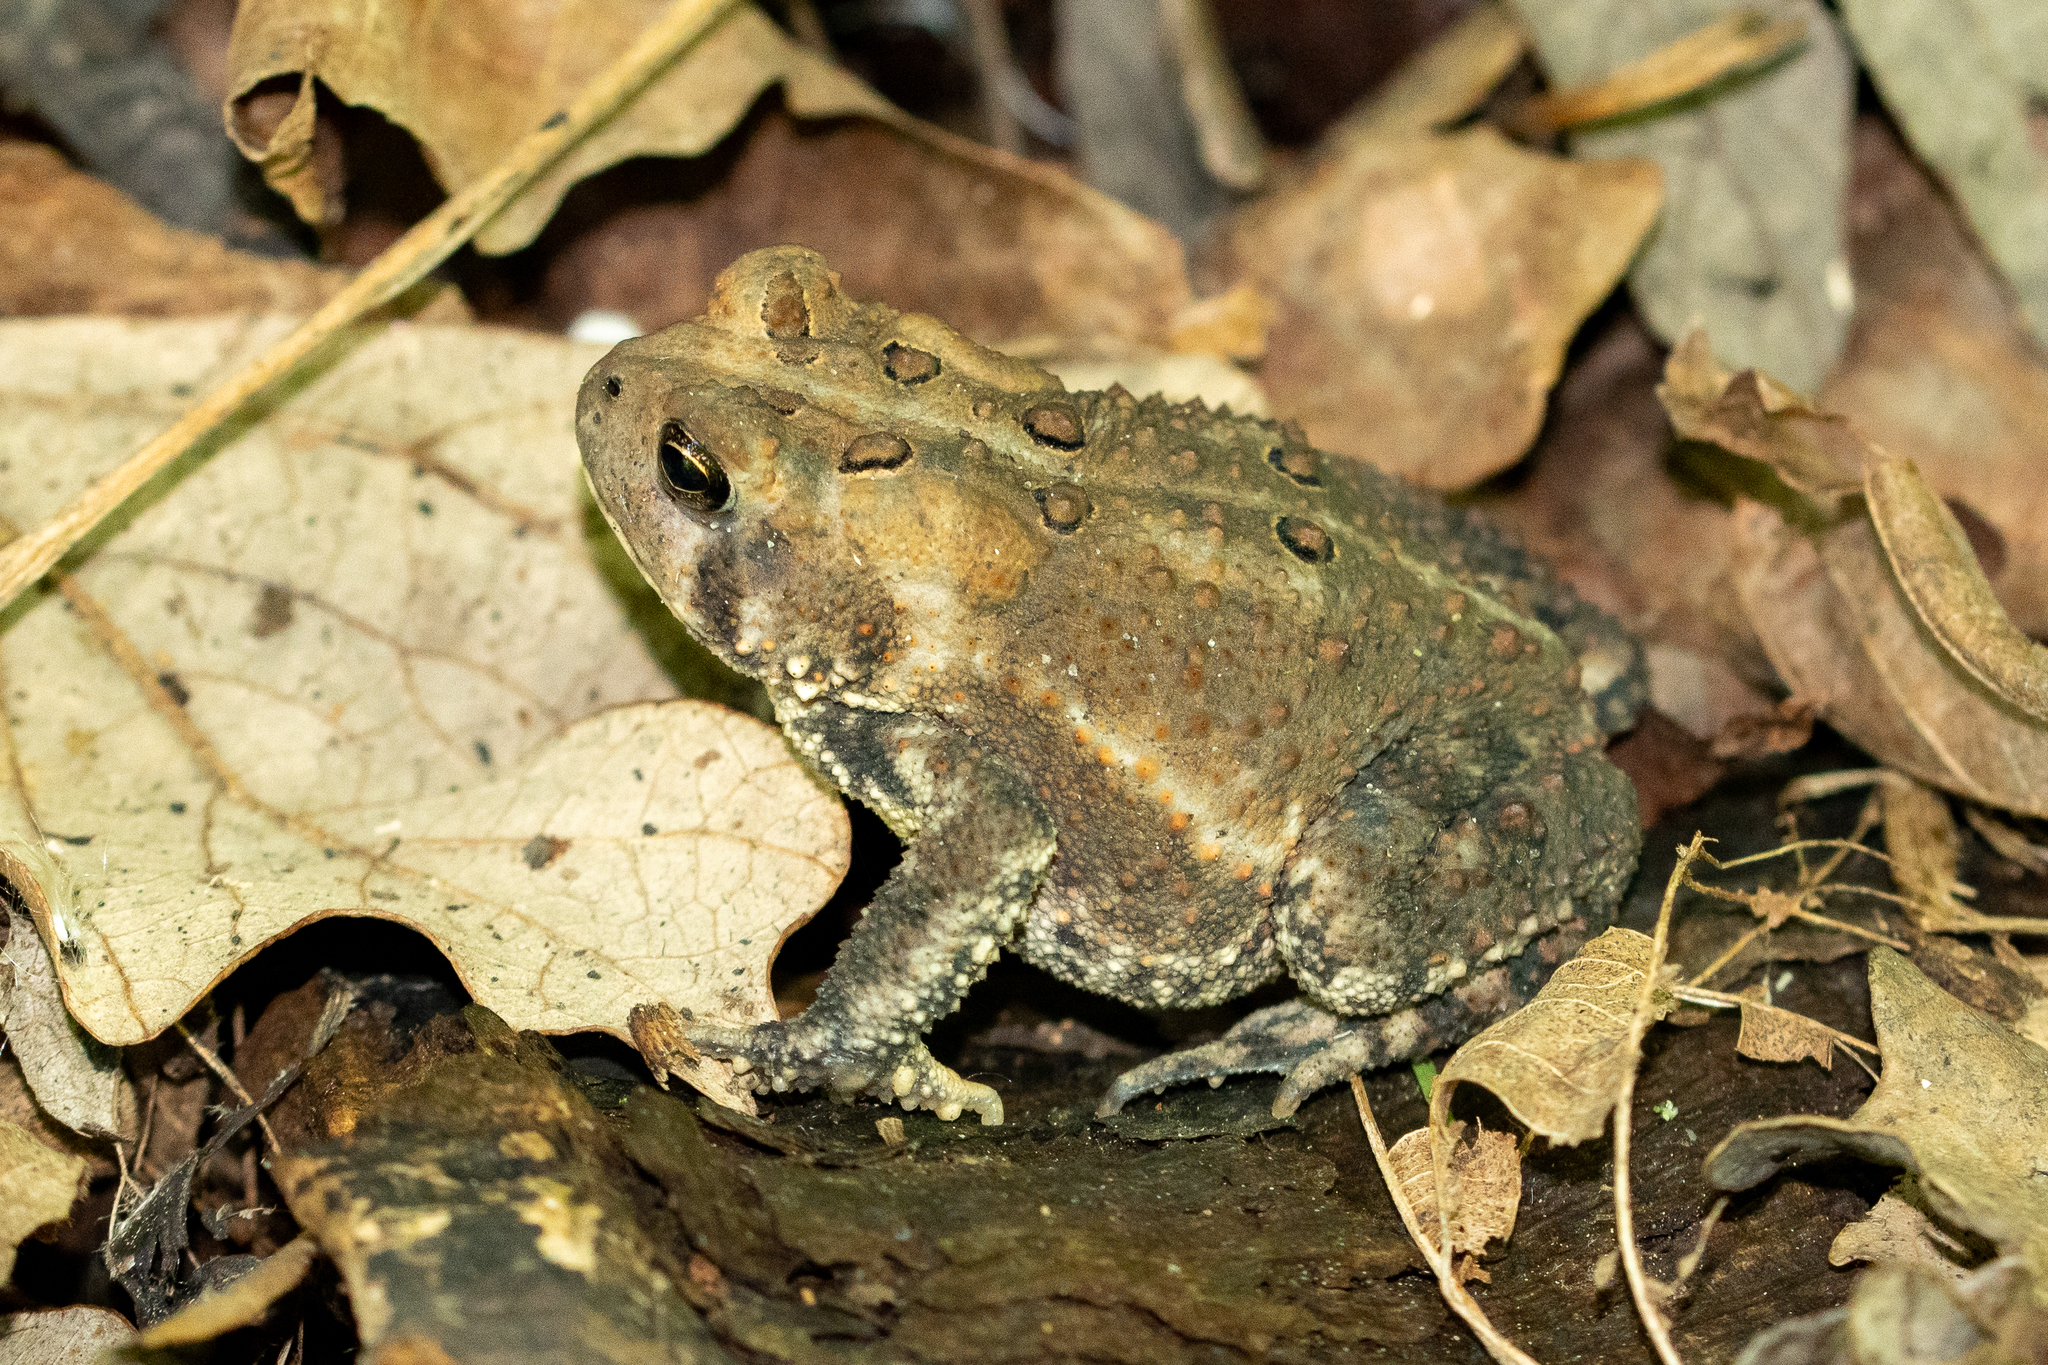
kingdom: Animalia
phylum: Chordata
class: Amphibia
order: Anura
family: Bufonidae
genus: Anaxyrus
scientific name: Anaxyrus americanus
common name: American toad
